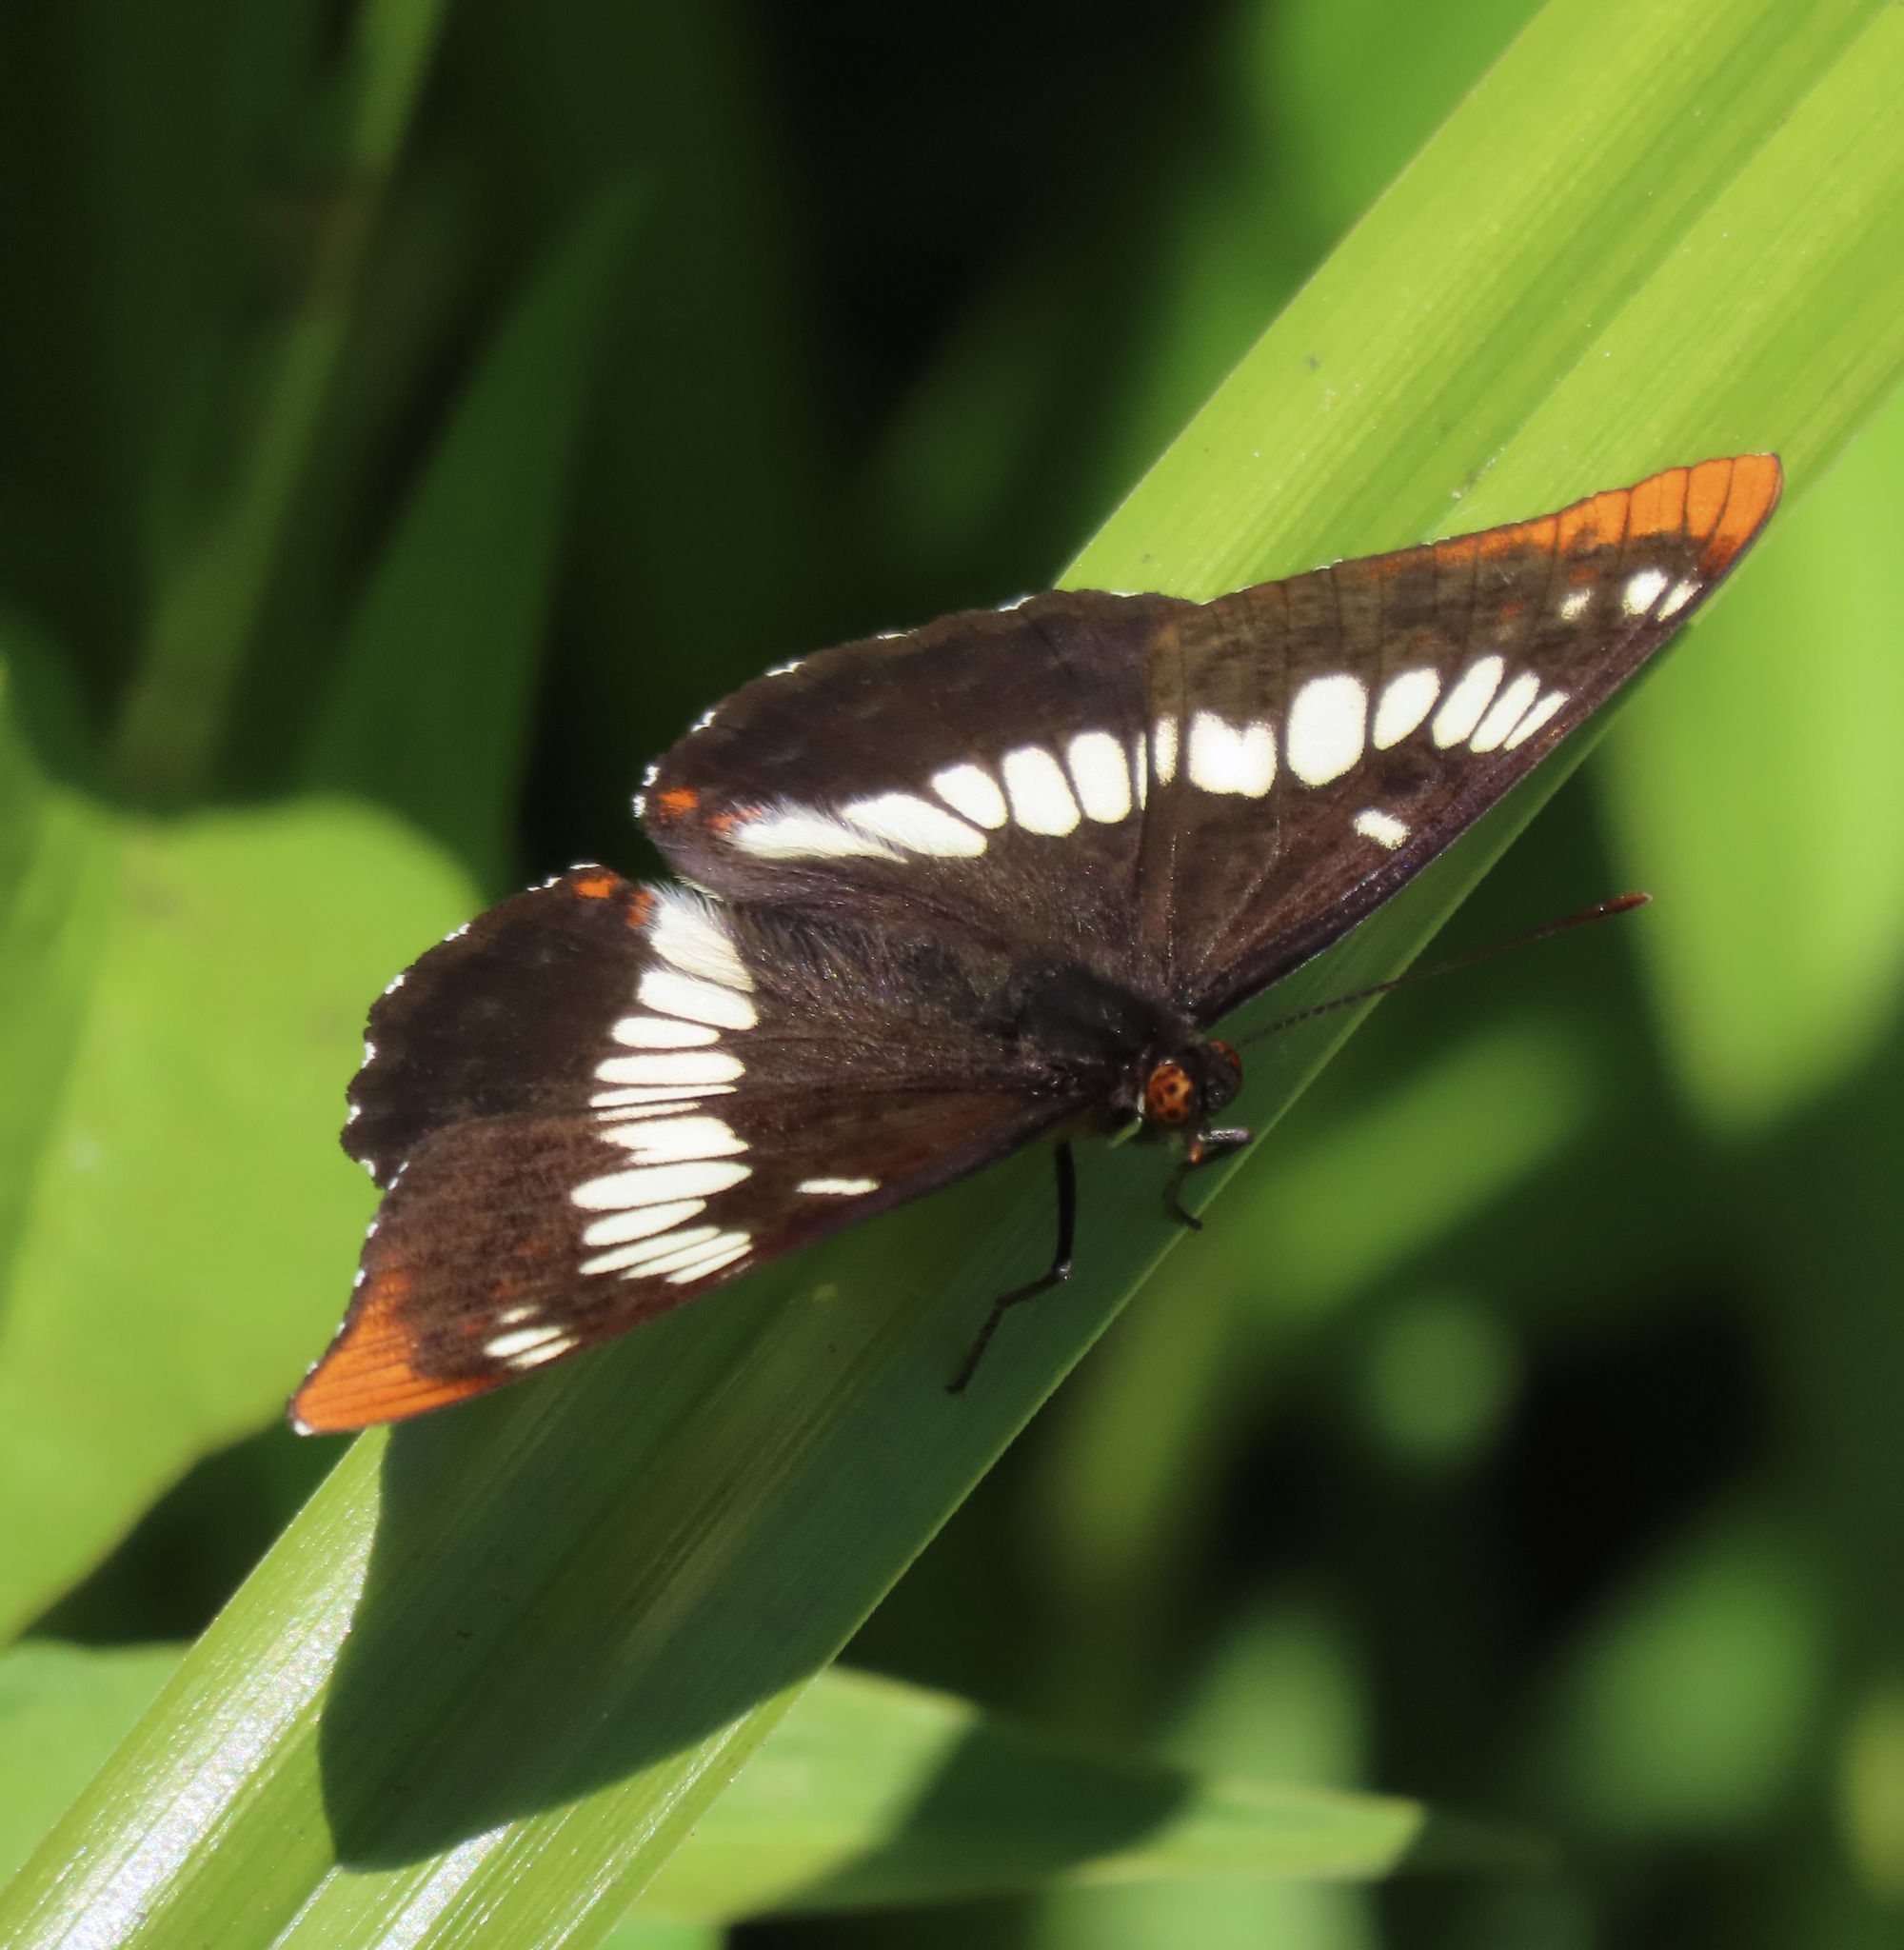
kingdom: Animalia
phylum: Arthropoda
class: Insecta
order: Lepidoptera
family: Nymphalidae
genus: Limenitis
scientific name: Limenitis lorquini
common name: Lorquin's admiral
